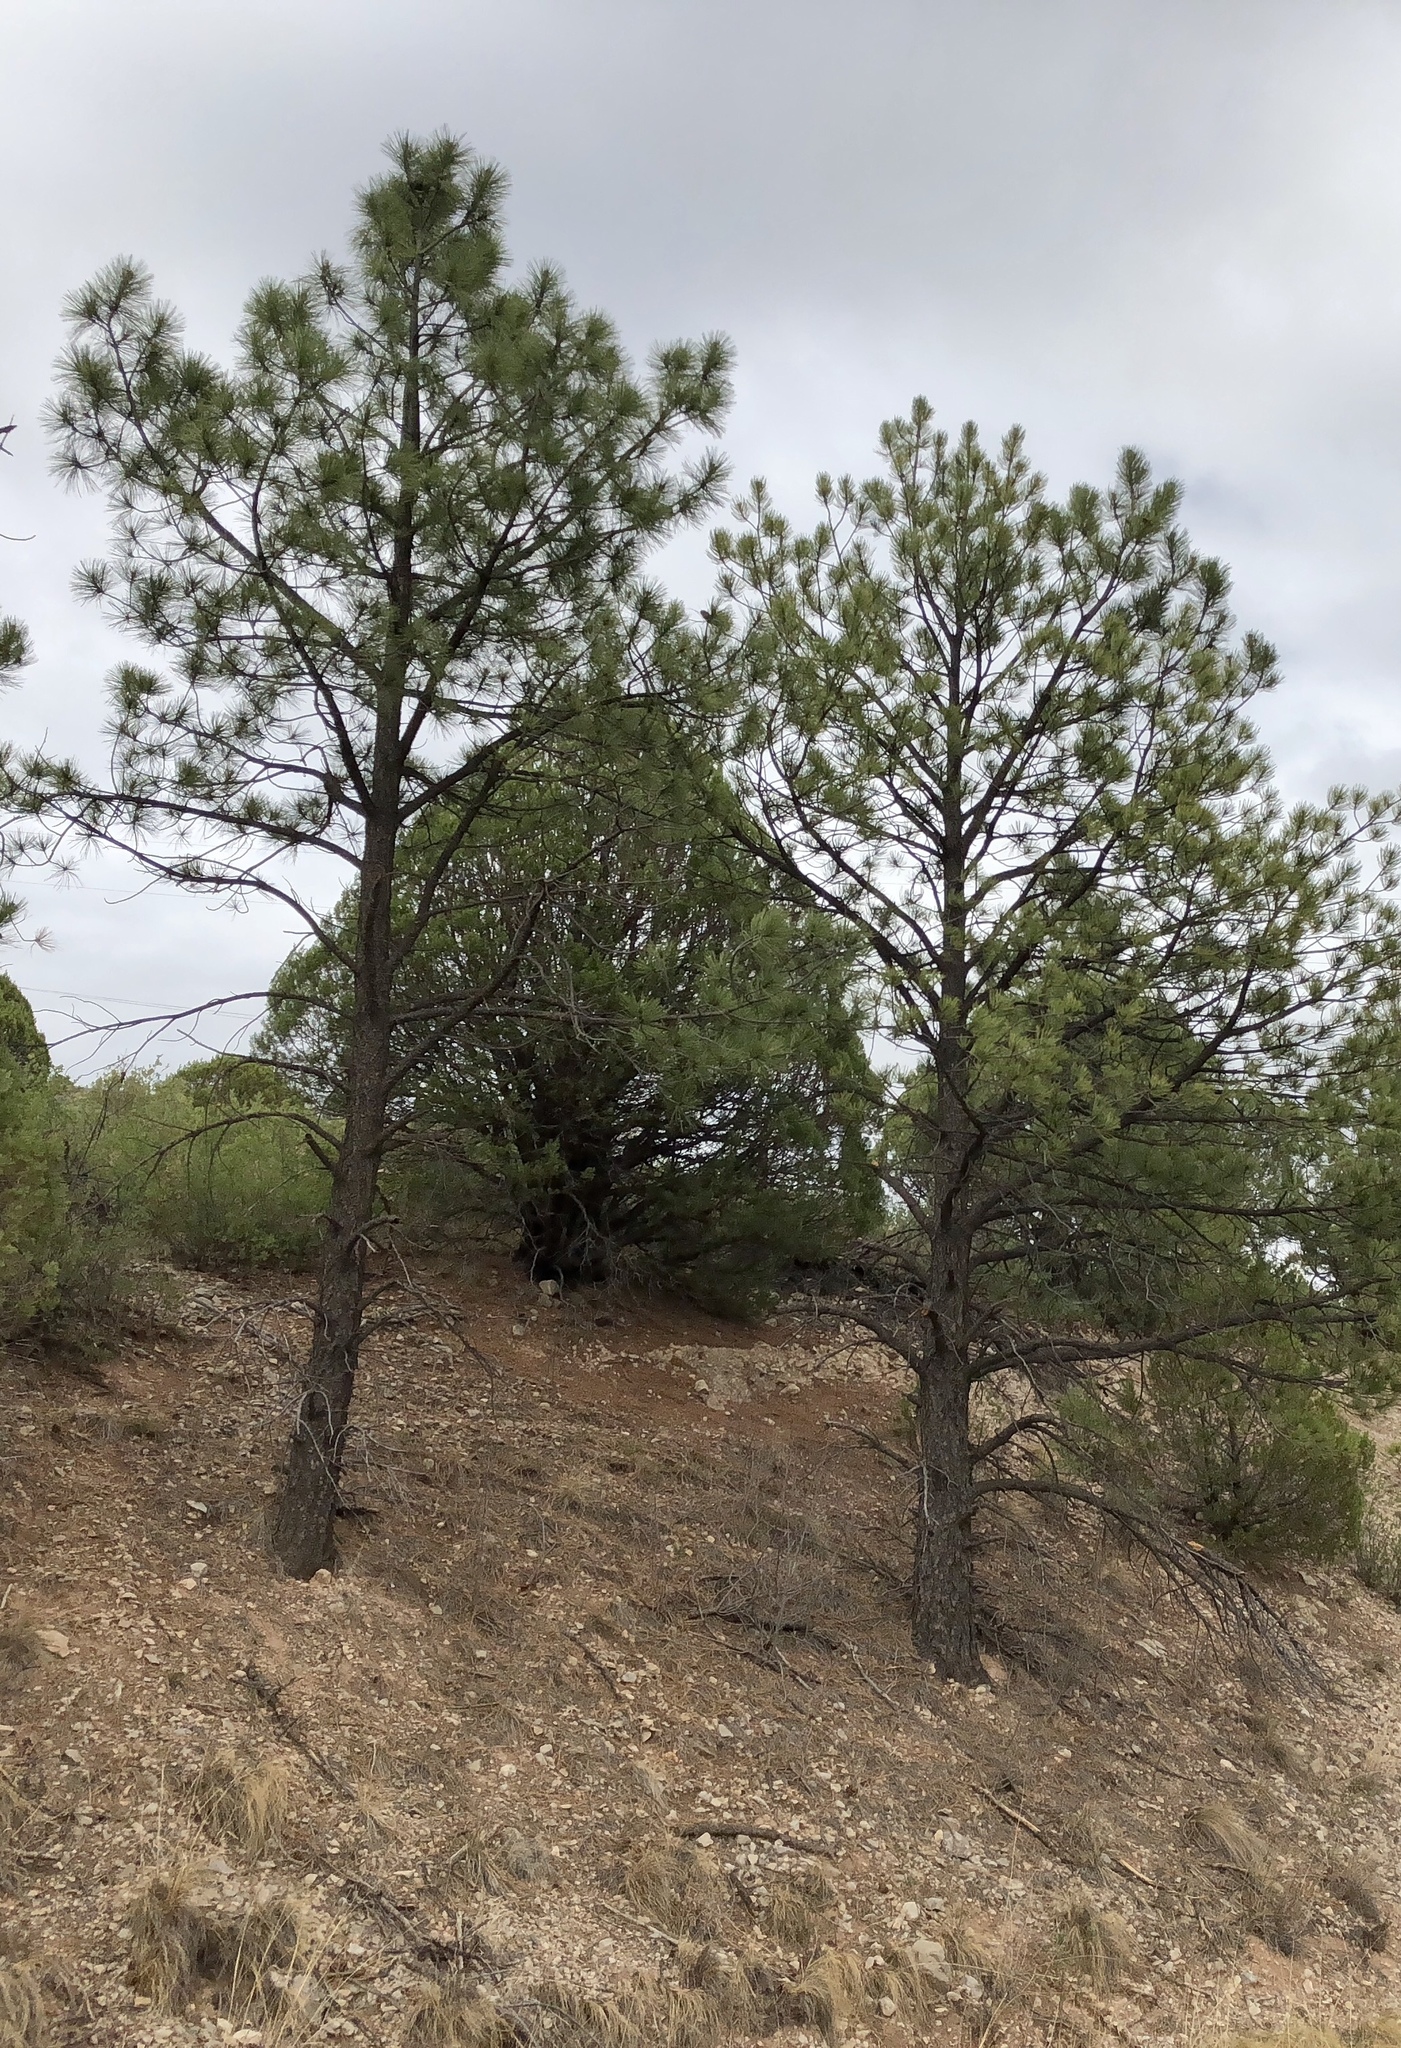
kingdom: Plantae
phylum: Tracheophyta
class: Pinopsida
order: Pinales
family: Pinaceae
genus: Pinus
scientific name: Pinus ponderosa
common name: Western yellow-pine
